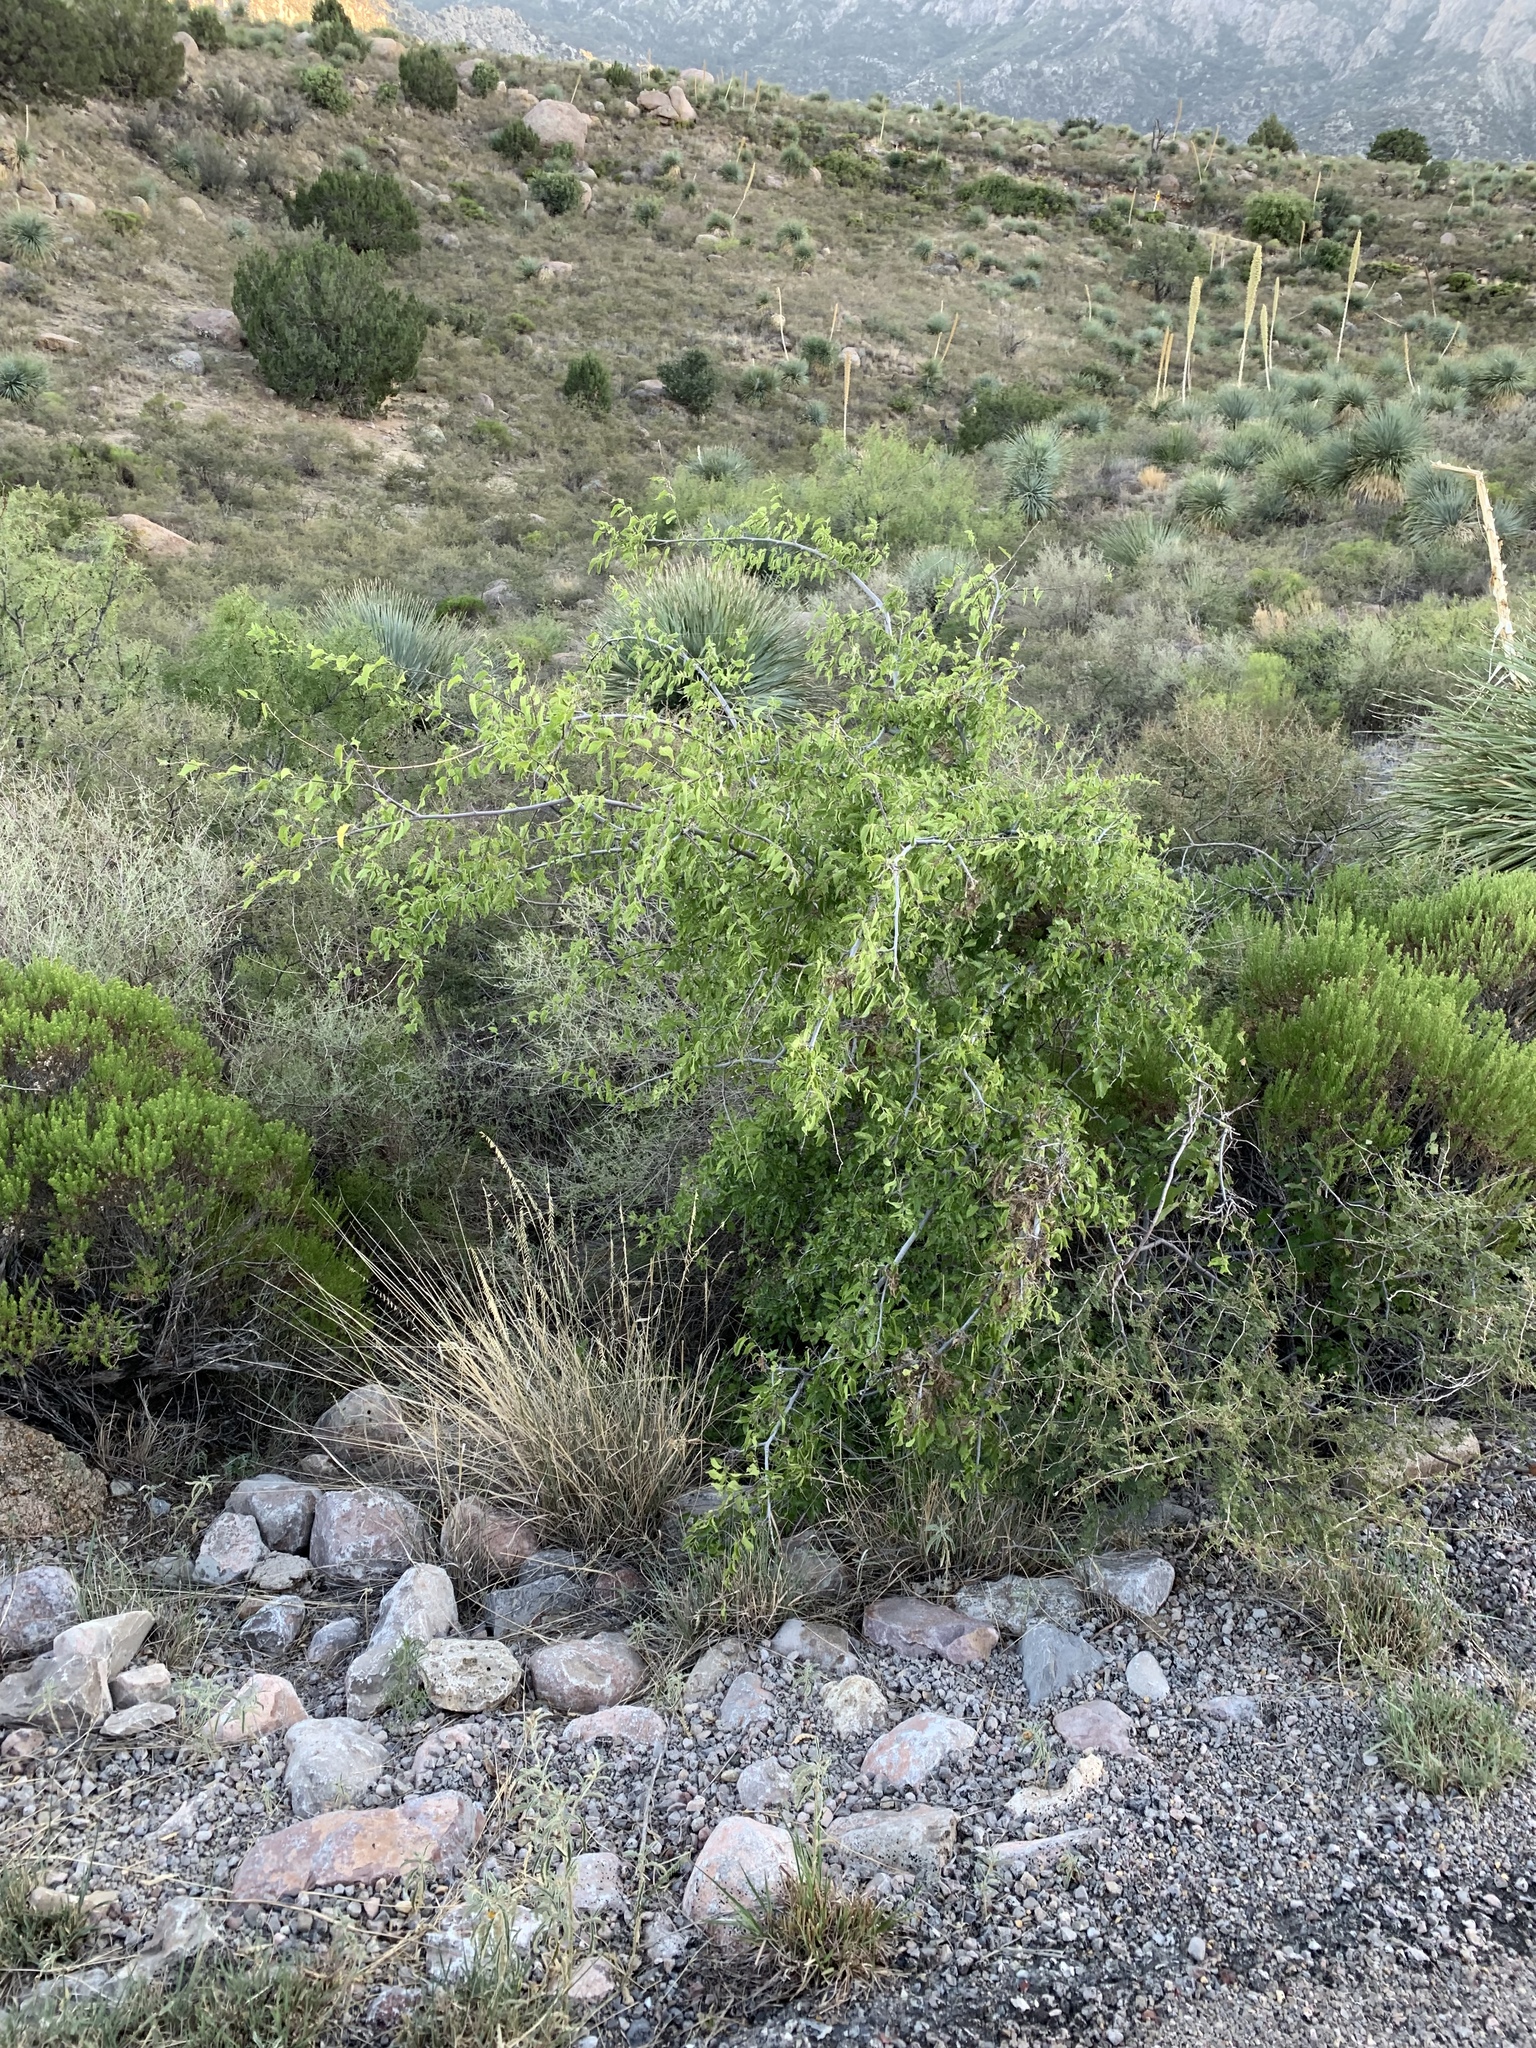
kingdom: Plantae
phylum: Tracheophyta
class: Magnoliopsida
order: Rosales
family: Cannabaceae
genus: Celtis
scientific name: Celtis reticulata
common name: Netleaf hackberry
